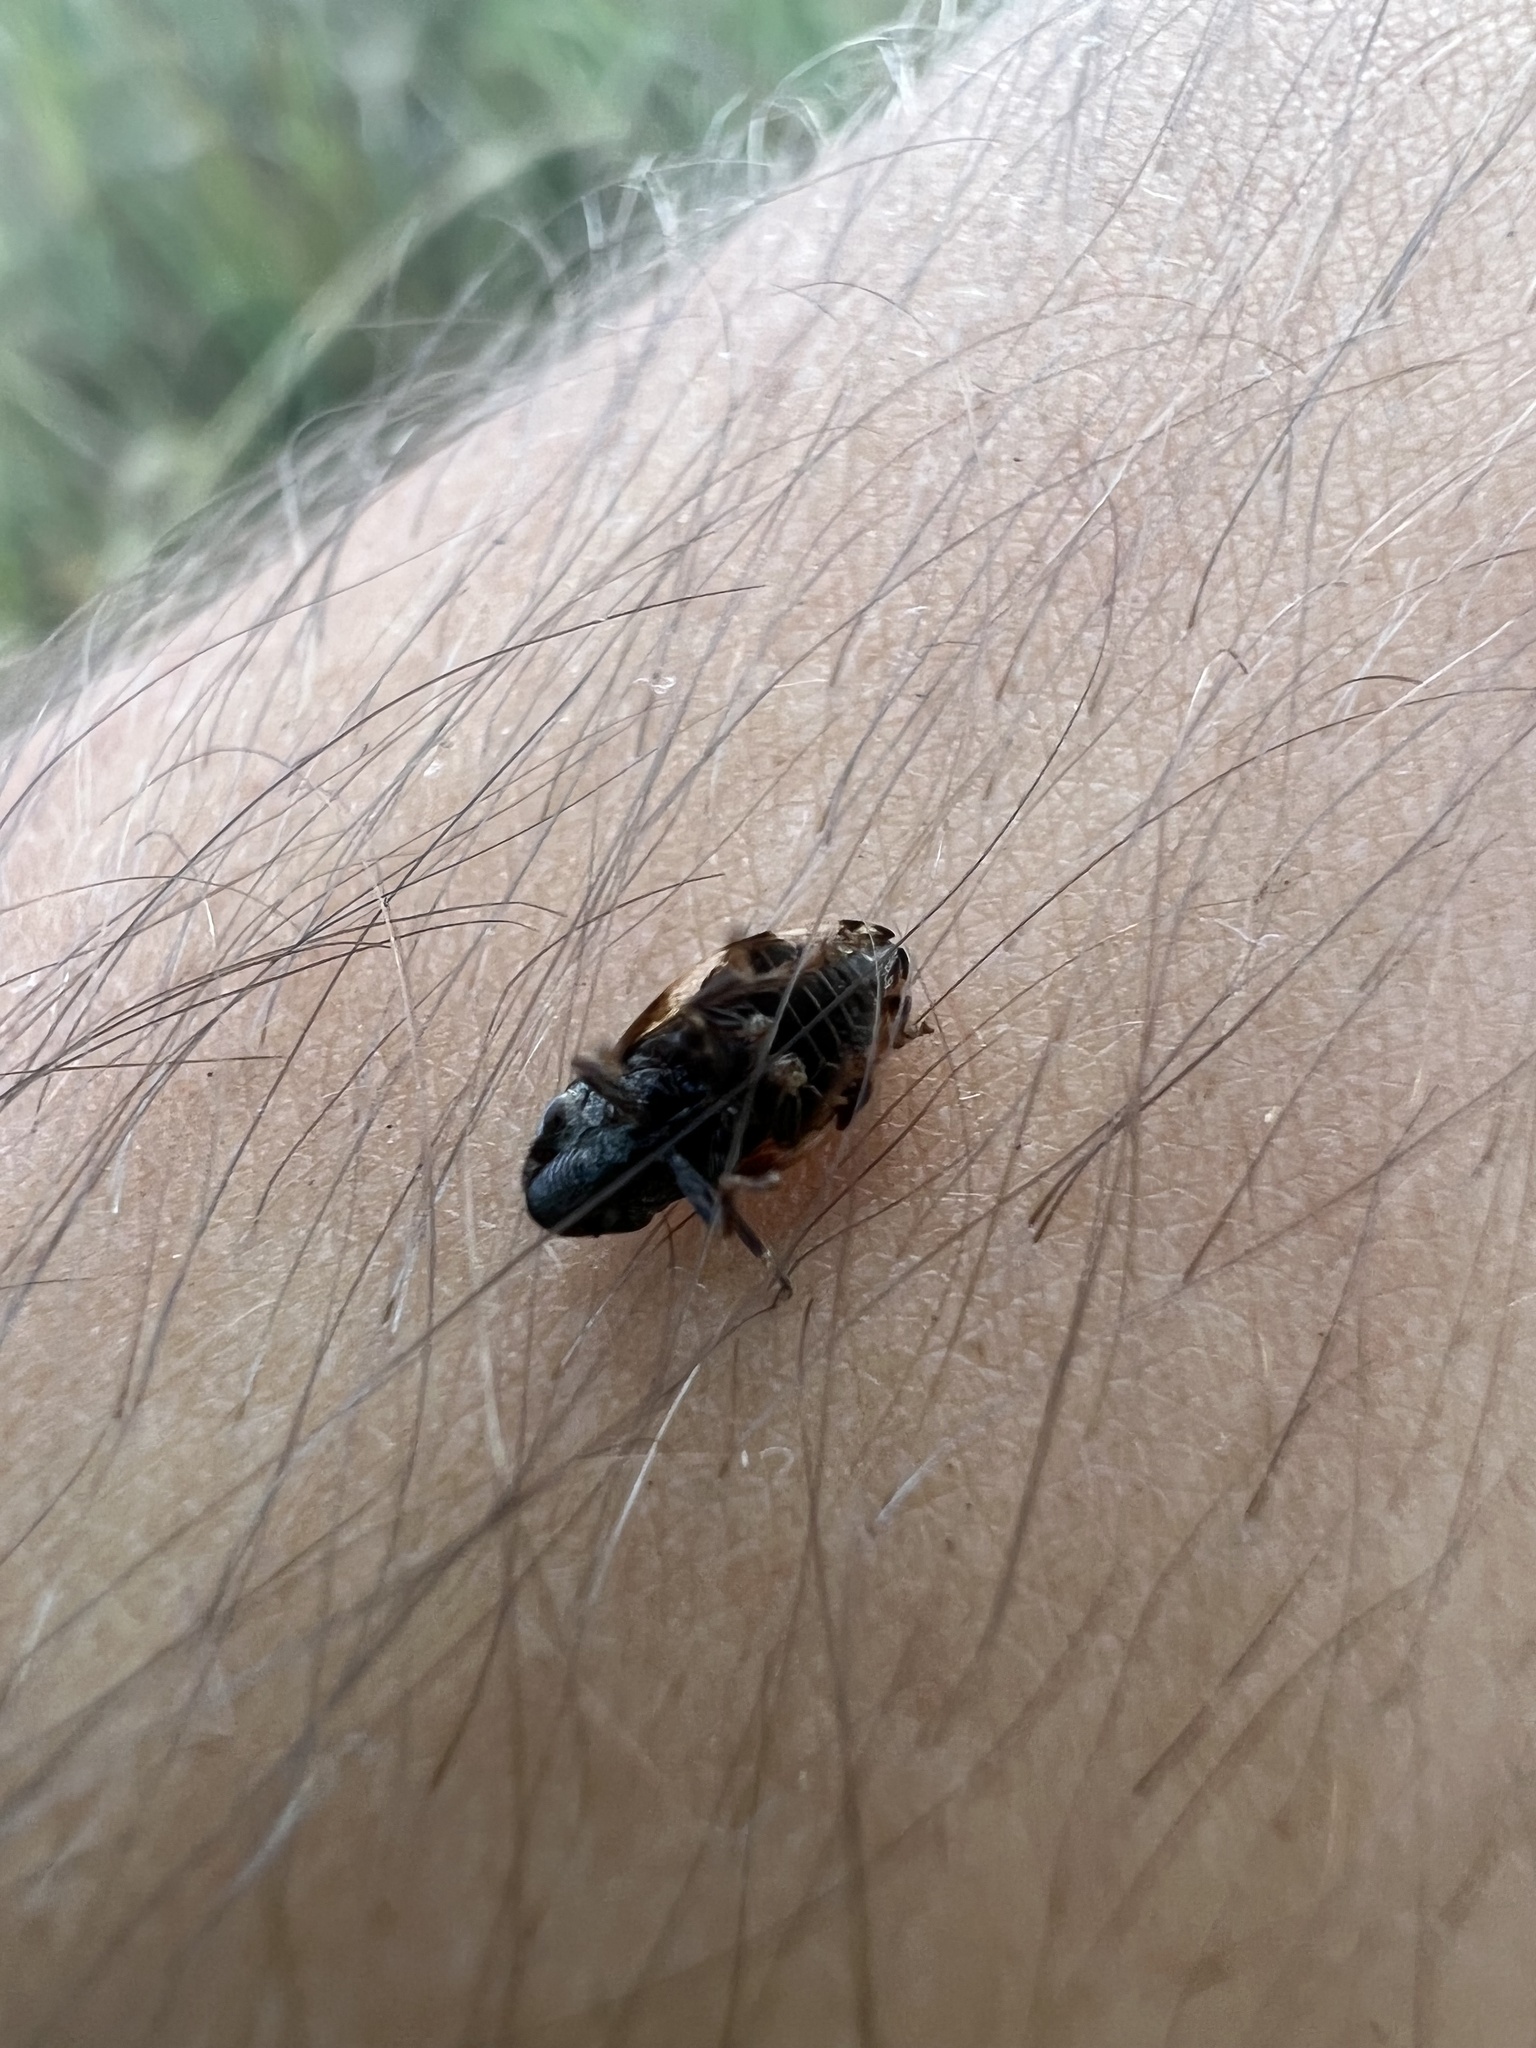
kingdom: Animalia
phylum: Arthropoda
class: Insecta
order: Hemiptera
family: Aphrophoridae
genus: Lepyronia
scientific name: Lepyronia quadrangularis
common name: Diamond-backed spittlebug
